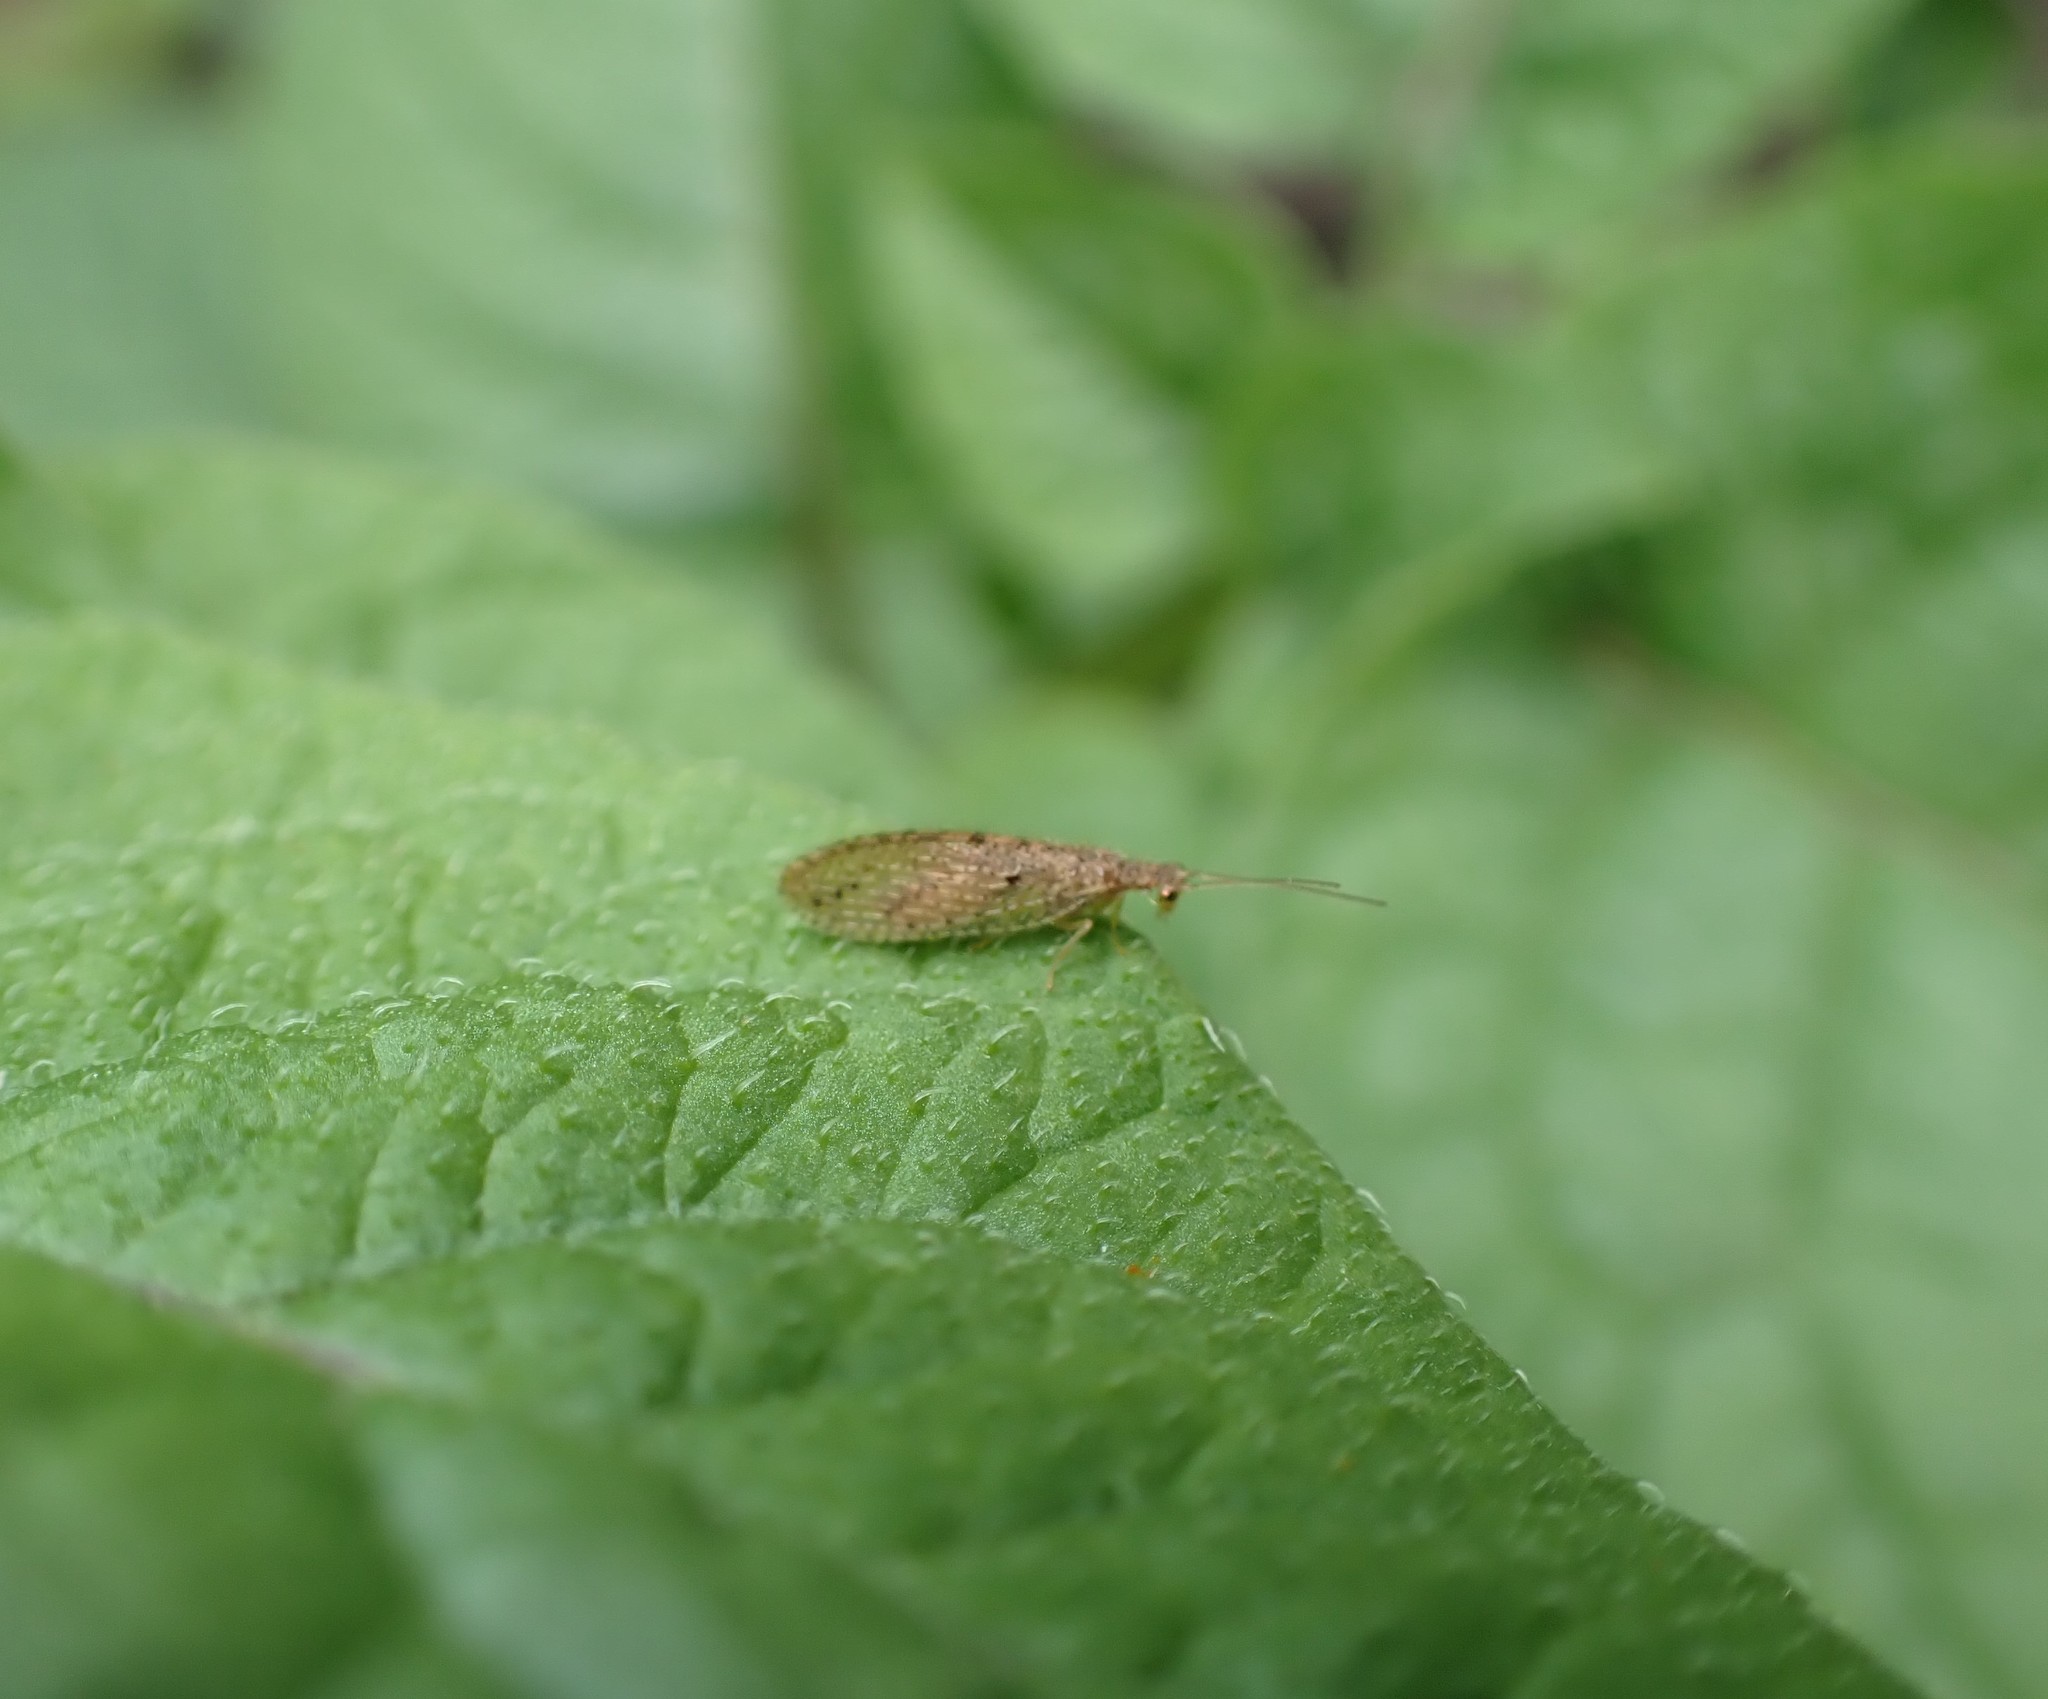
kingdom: Animalia
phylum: Arthropoda
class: Insecta
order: Neuroptera
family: Hemerobiidae
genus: Micromus
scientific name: Micromus tasmaniae
